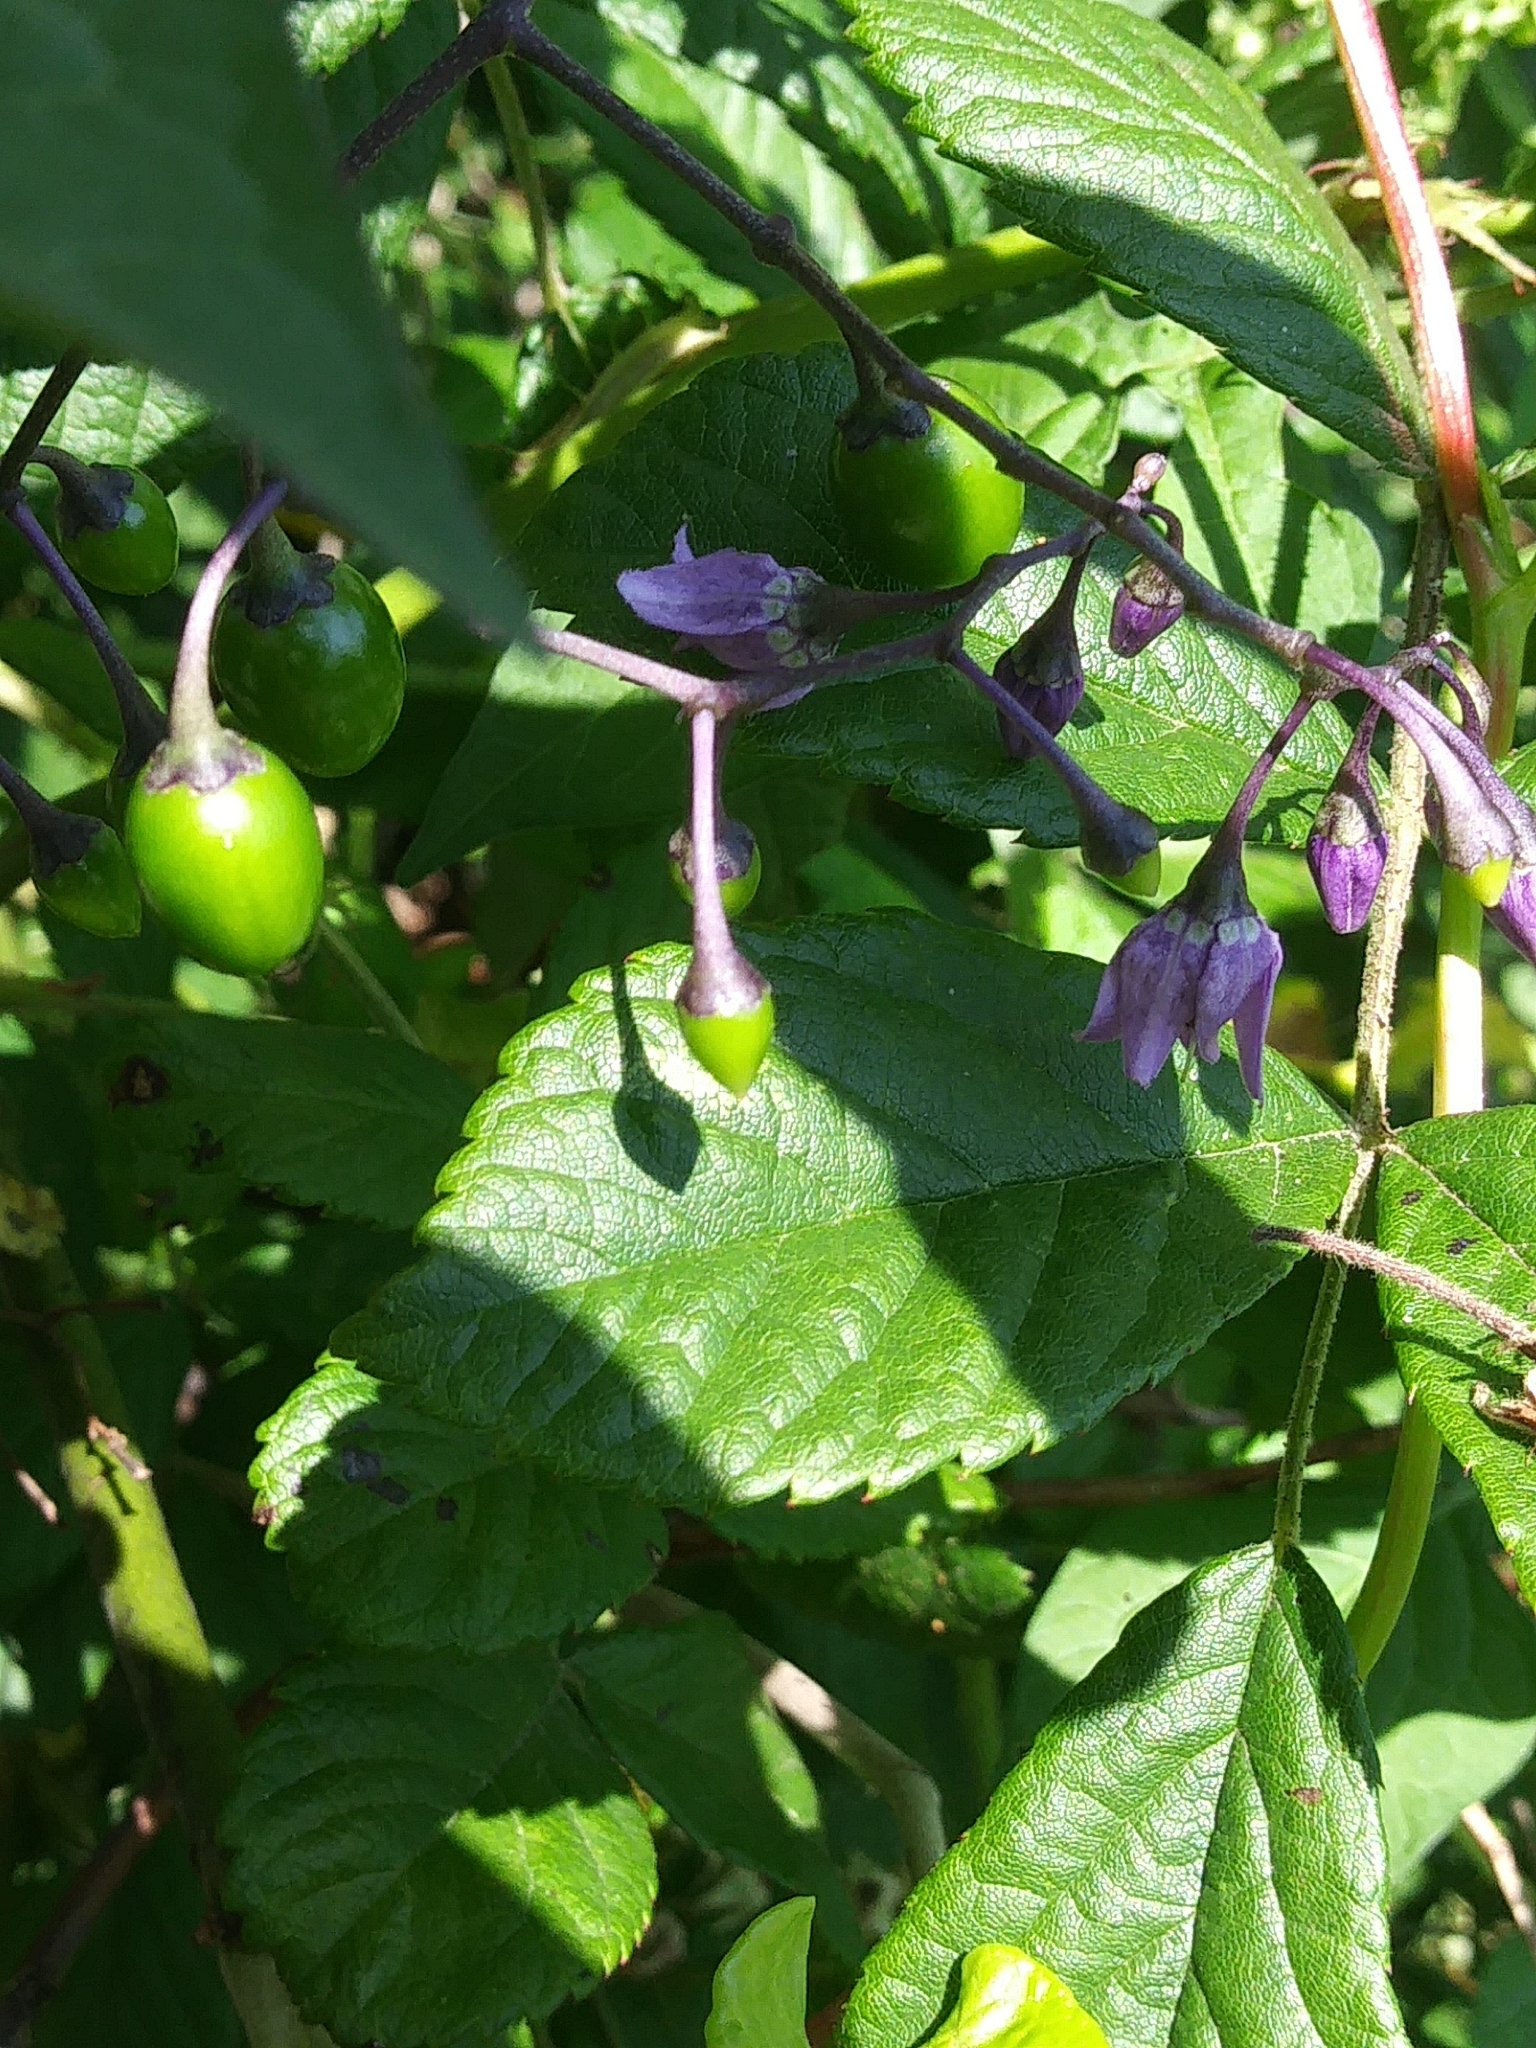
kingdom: Plantae
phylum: Tracheophyta
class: Magnoliopsida
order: Solanales
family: Solanaceae
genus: Solanum
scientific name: Solanum dulcamara
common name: Climbing nightshade
